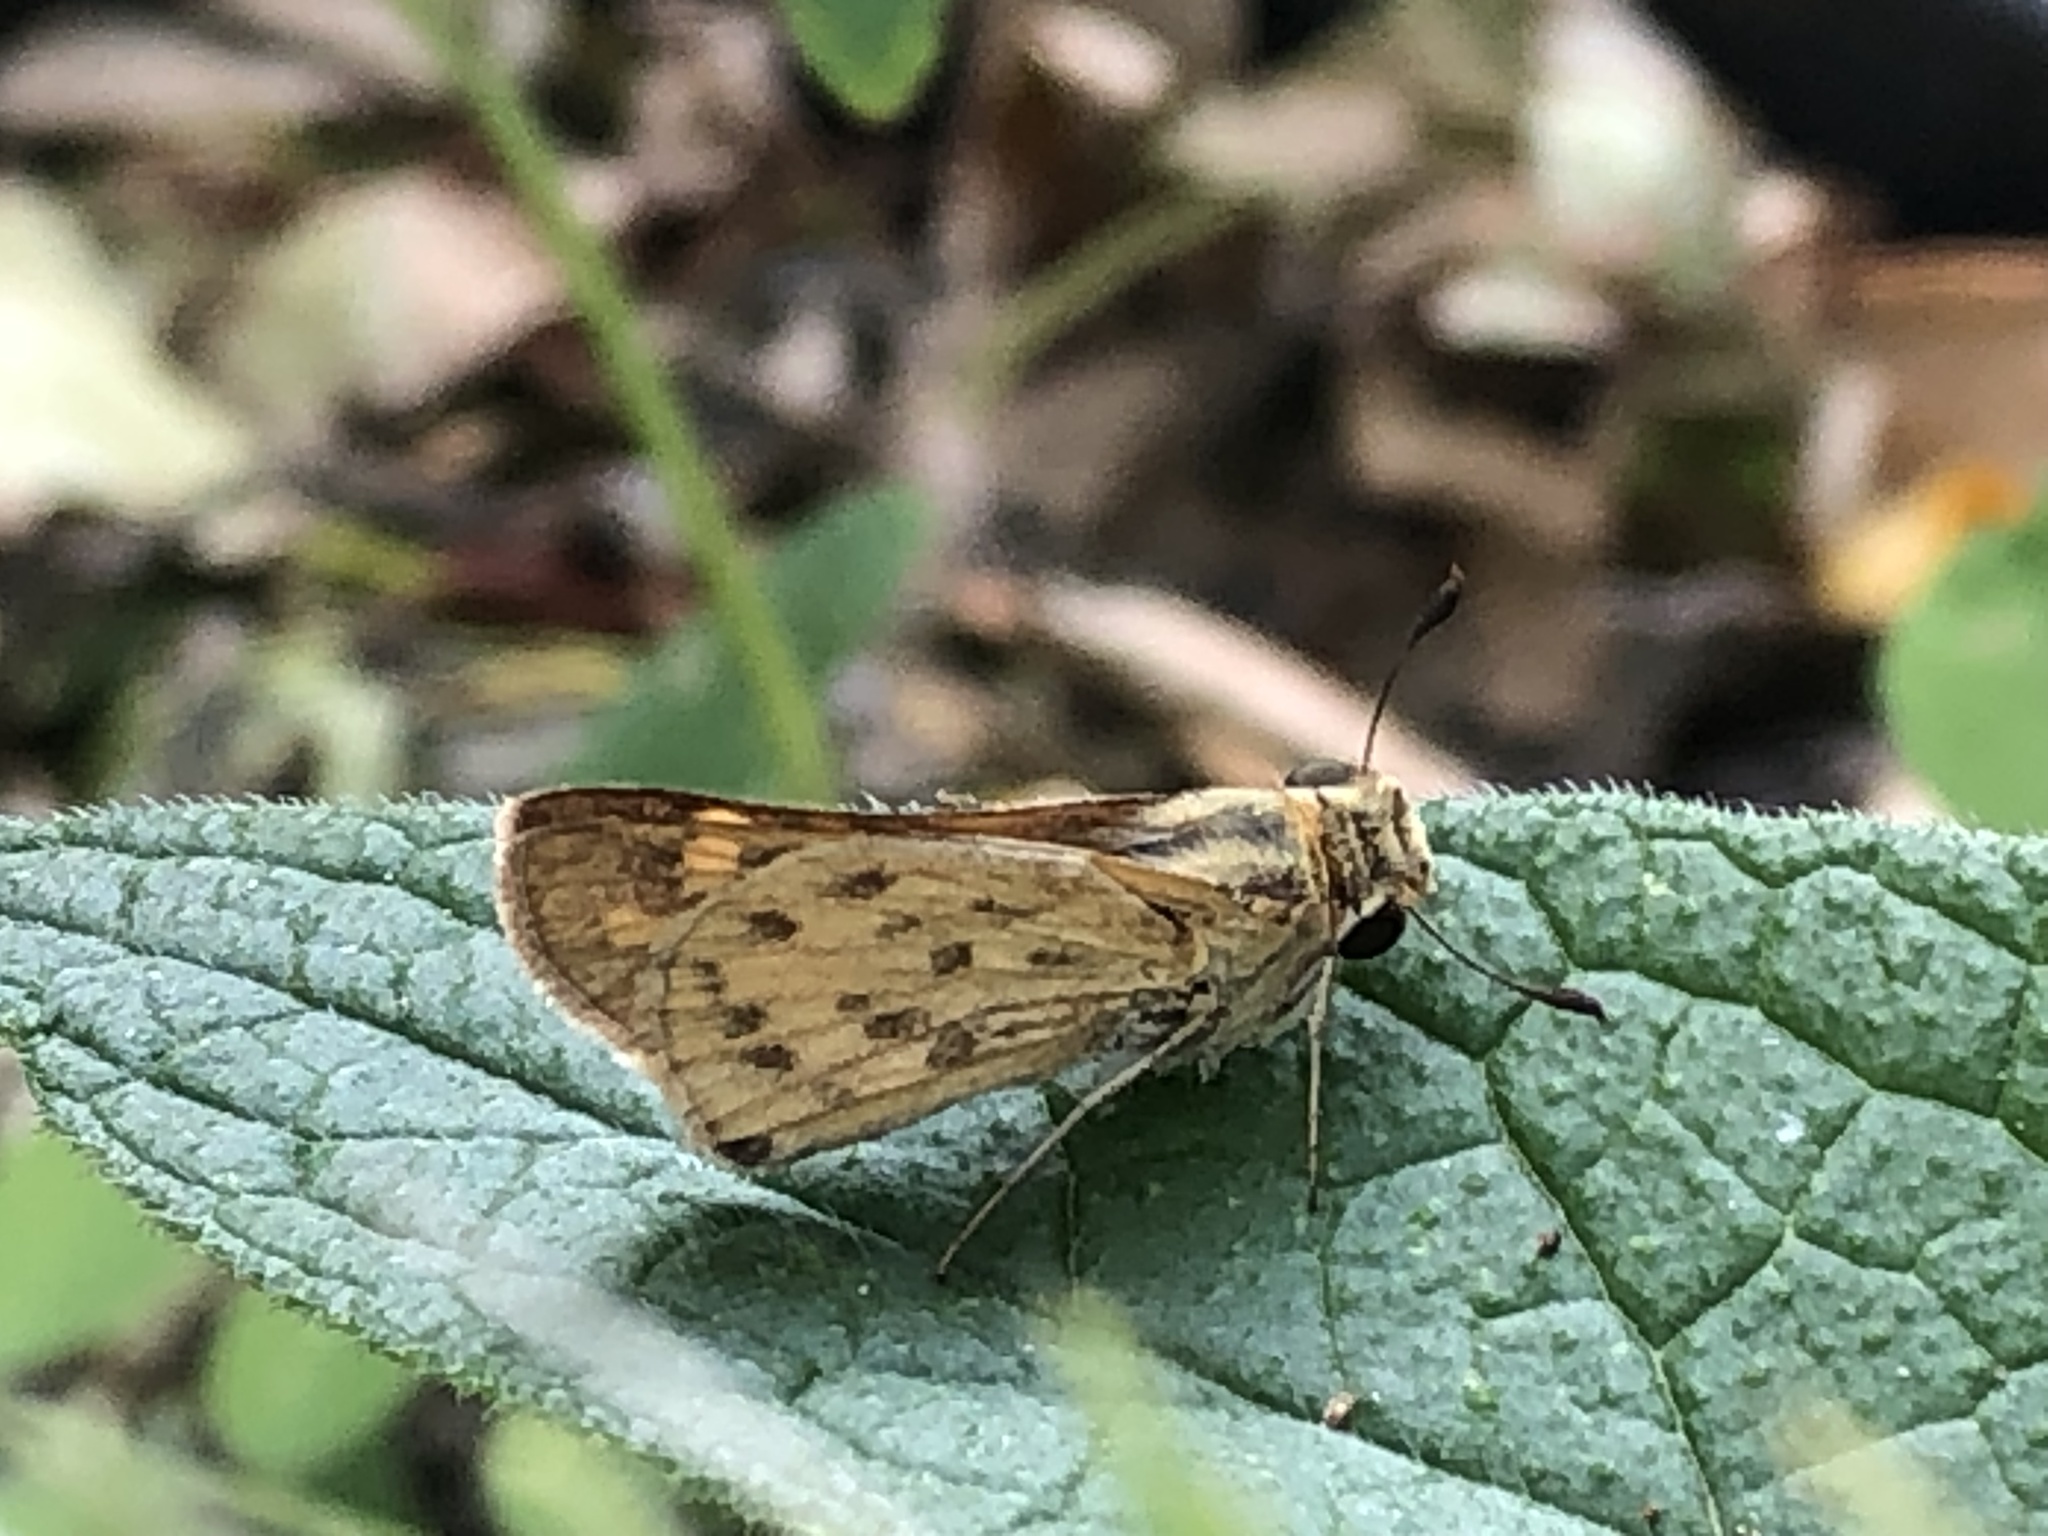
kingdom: Animalia
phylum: Arthropoda
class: Insecta
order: Lepidoptera
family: Hesperiidae
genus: Hylephila
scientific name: Hylephila phyleus
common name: Fiery skipper
